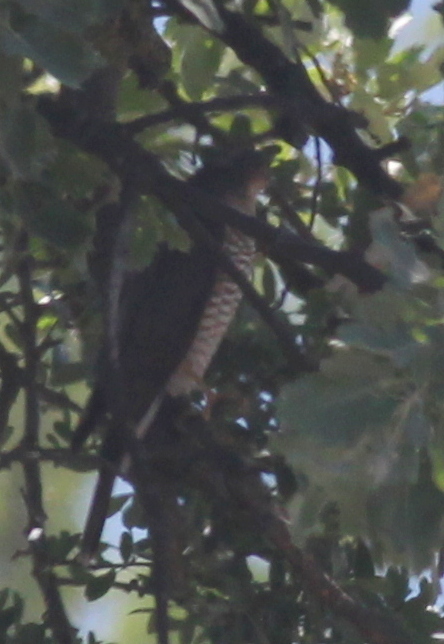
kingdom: Animalia
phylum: Chordata
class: Aves
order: Accipitriformes
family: Accipitridae
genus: Accipiter
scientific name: Accipiter nisus
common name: Eurasian sparrowhawk
